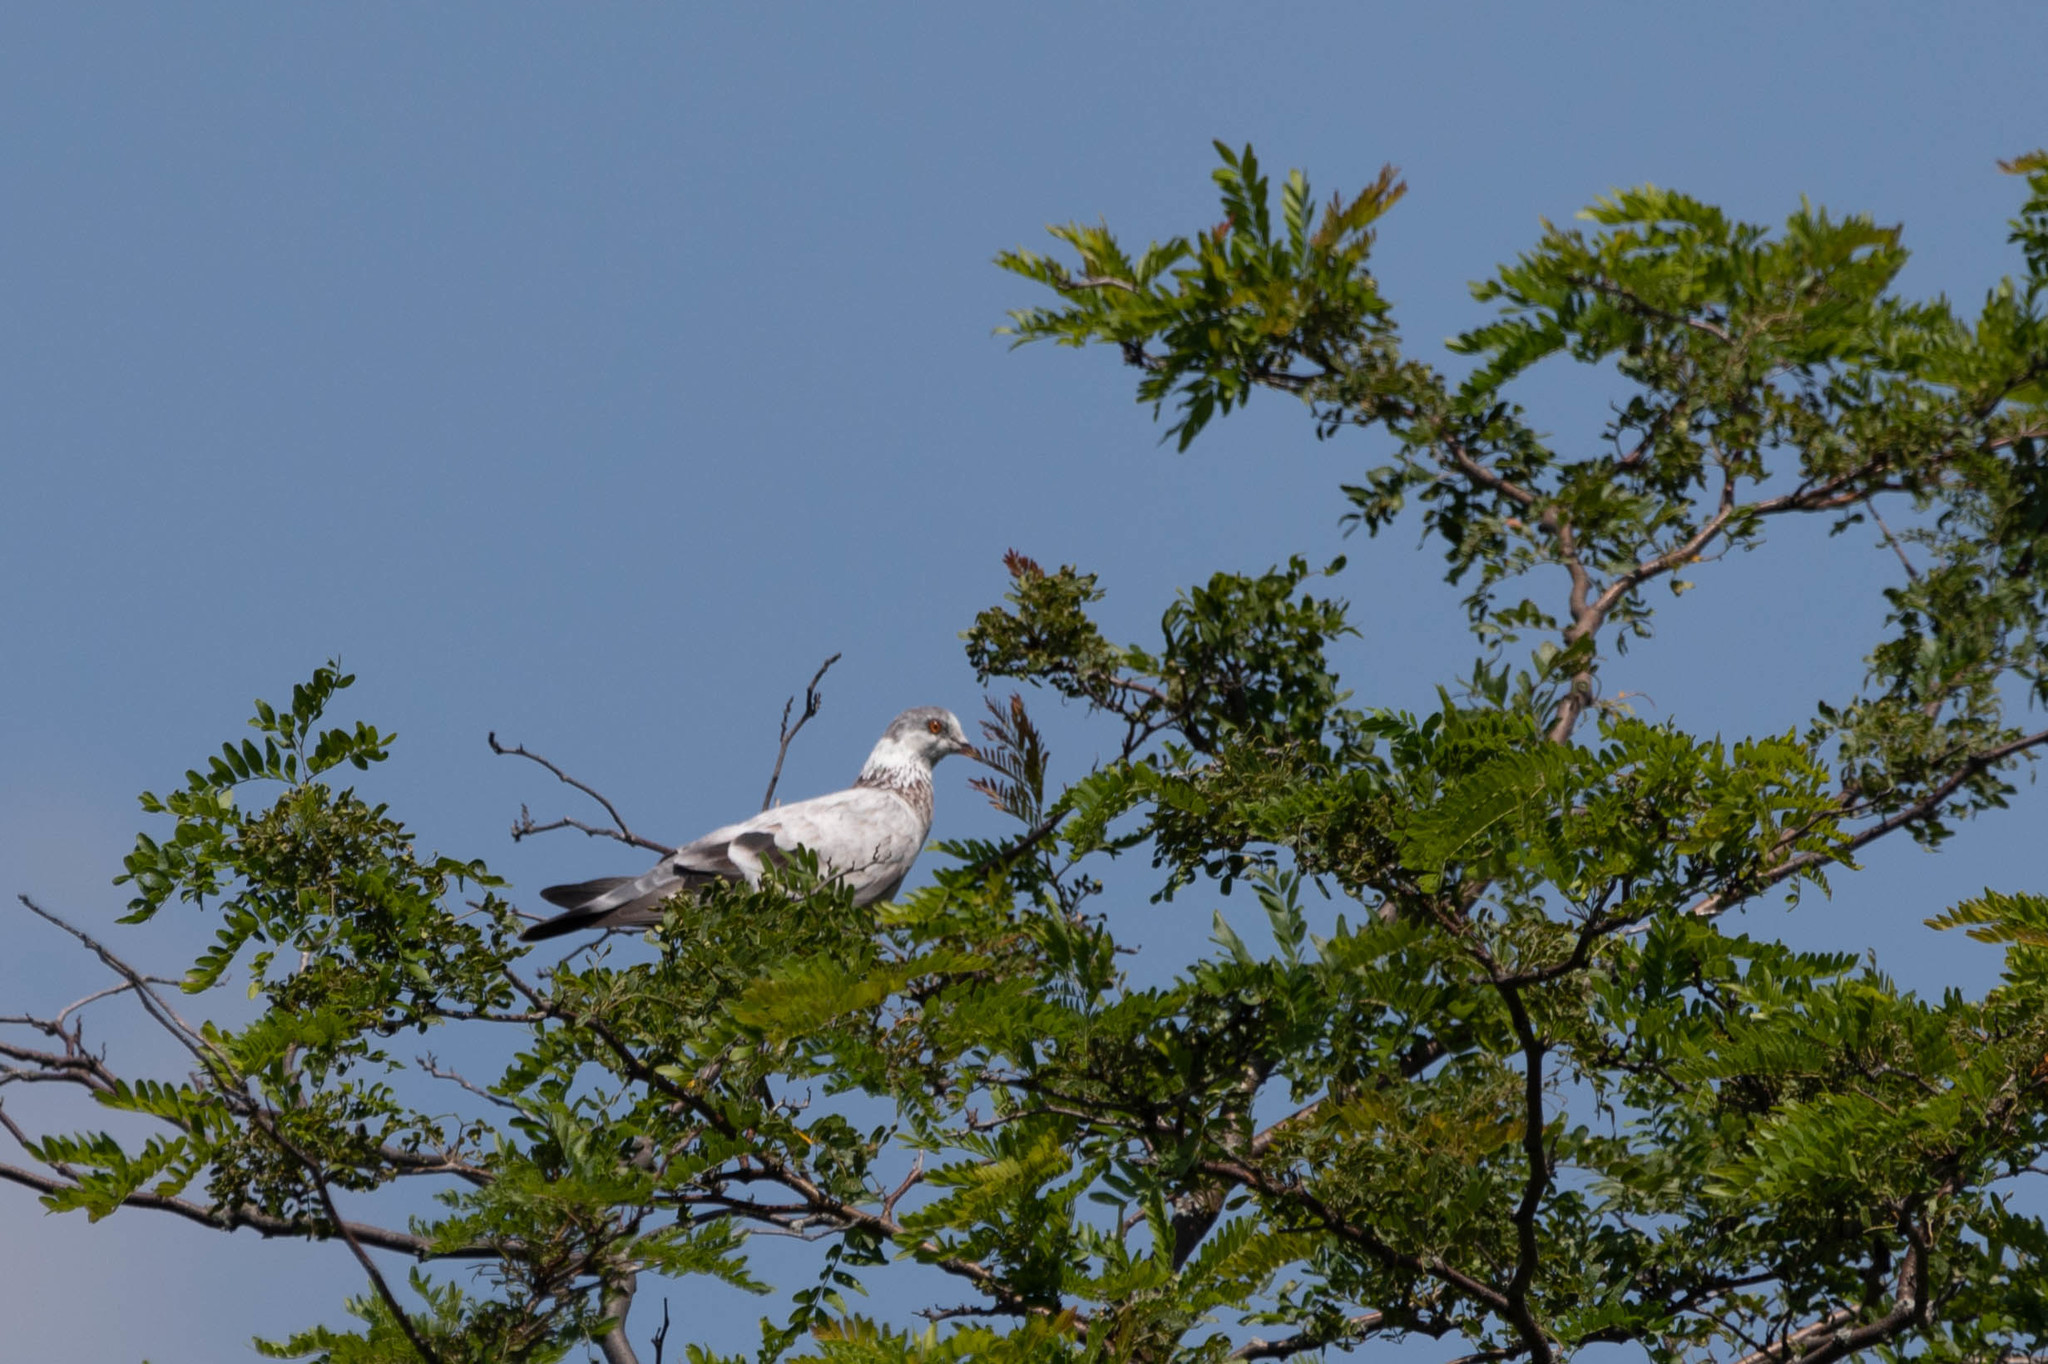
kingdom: Animalia
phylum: Chordata
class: Aves
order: Columbiformes
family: Columbidae
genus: Columba
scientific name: Columba livia
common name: Rock pigeon
